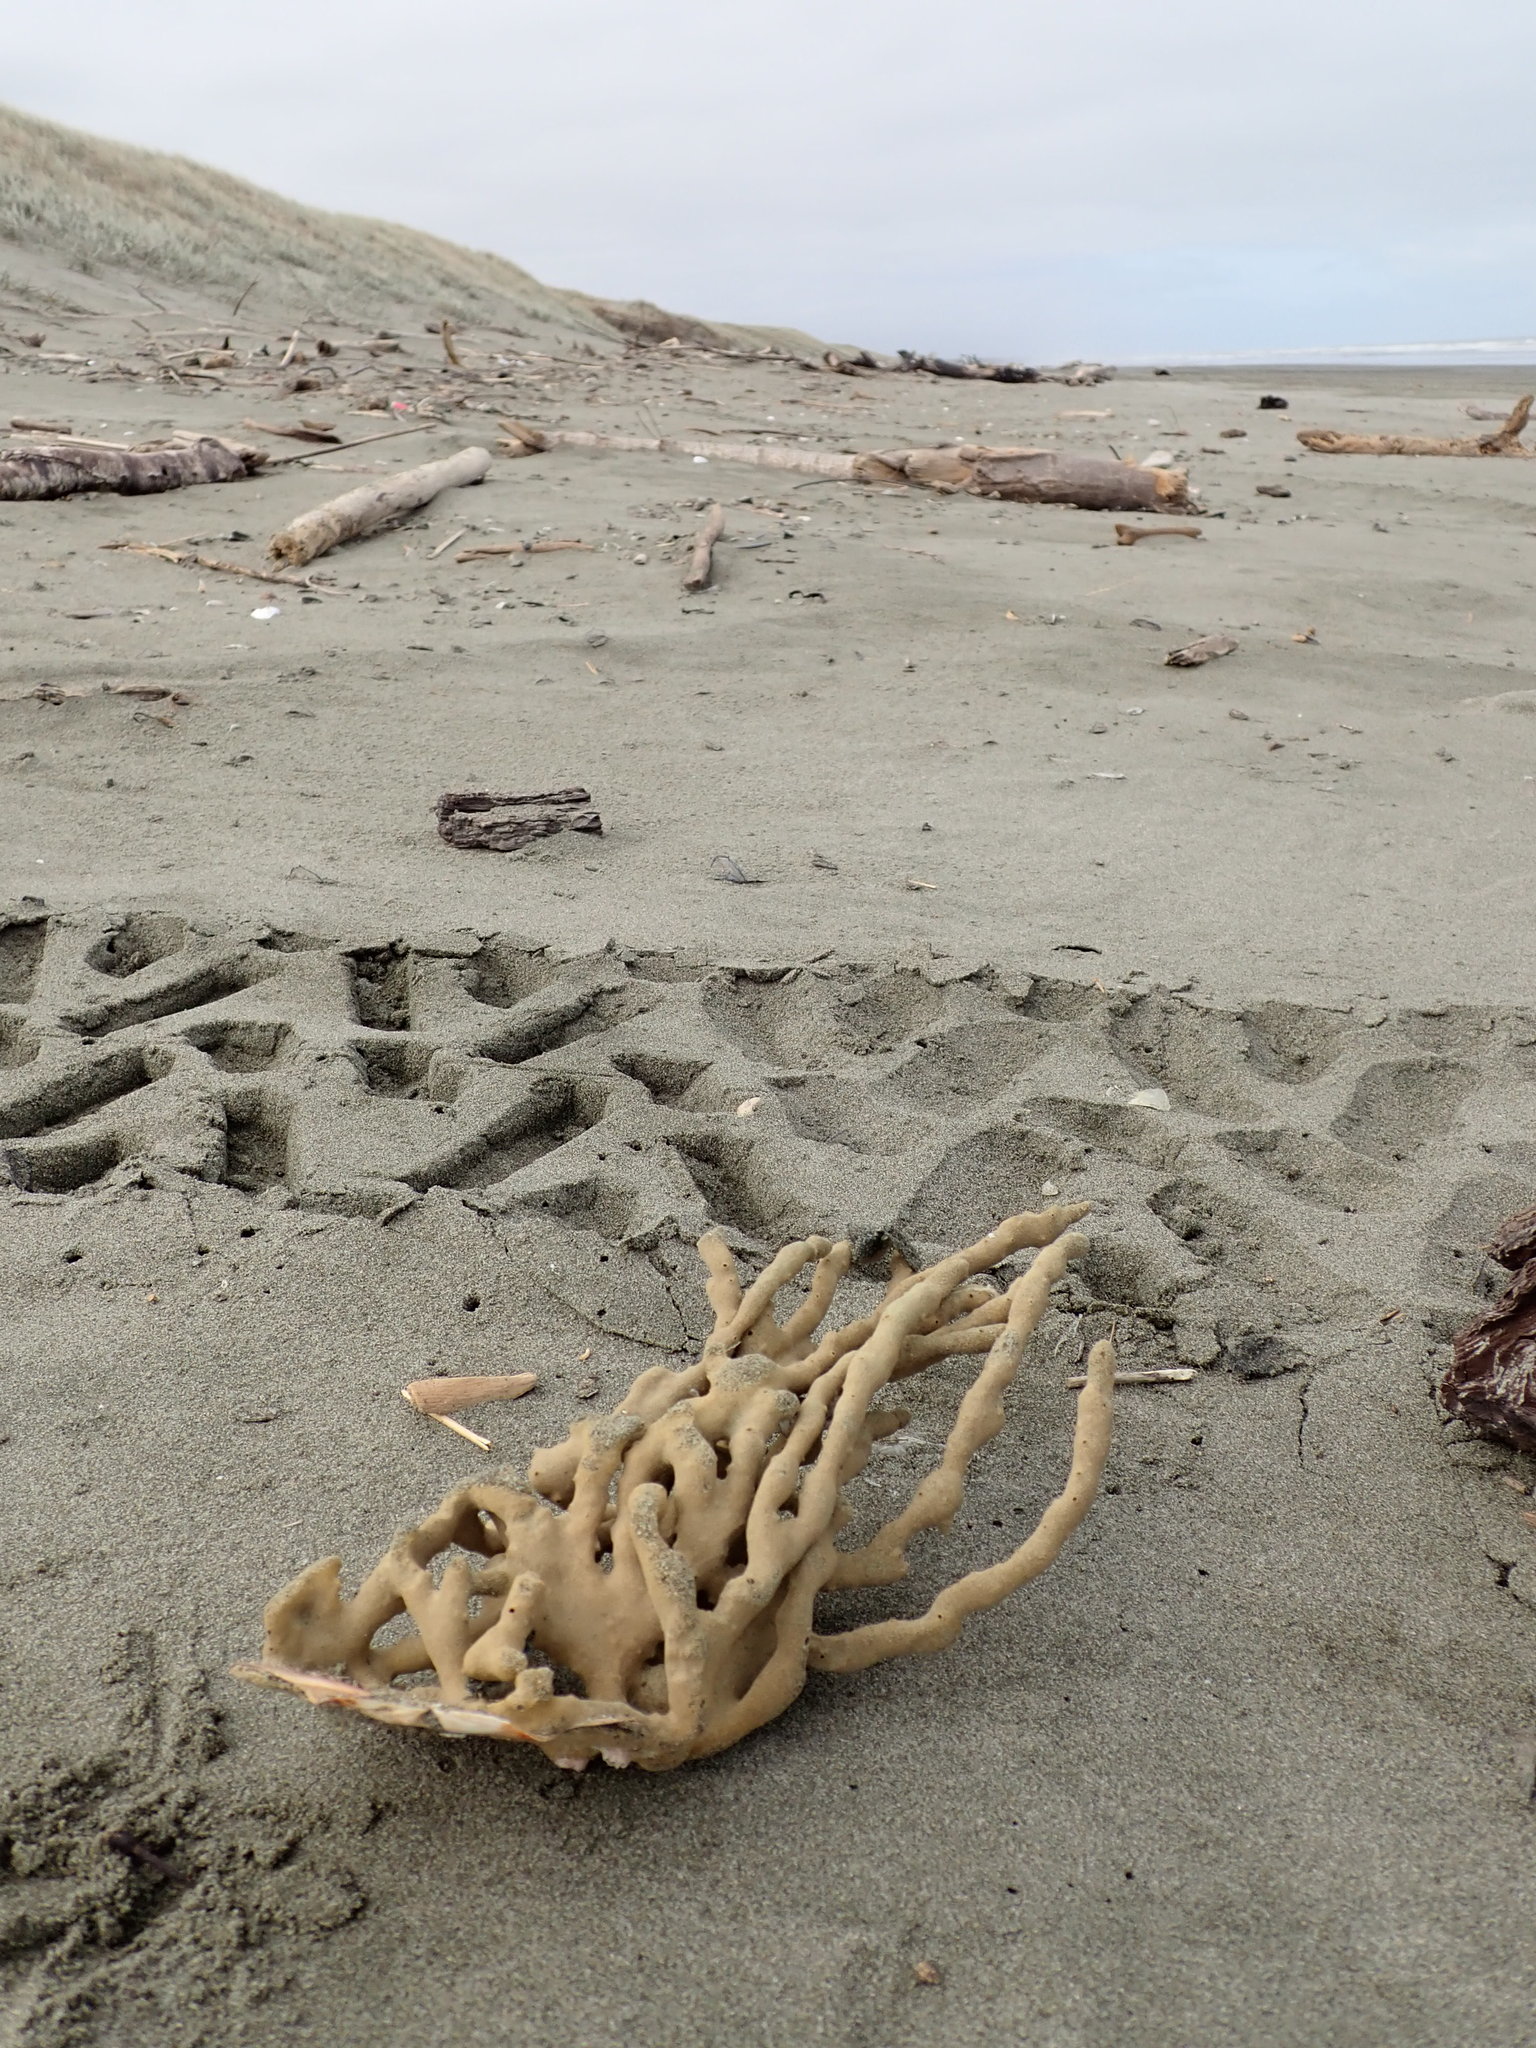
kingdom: Animalia
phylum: Porifera
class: Demospongiae
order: Haplosclerida
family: Callyspongiidae
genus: Callyspongia
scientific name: Callyspongia nuda
